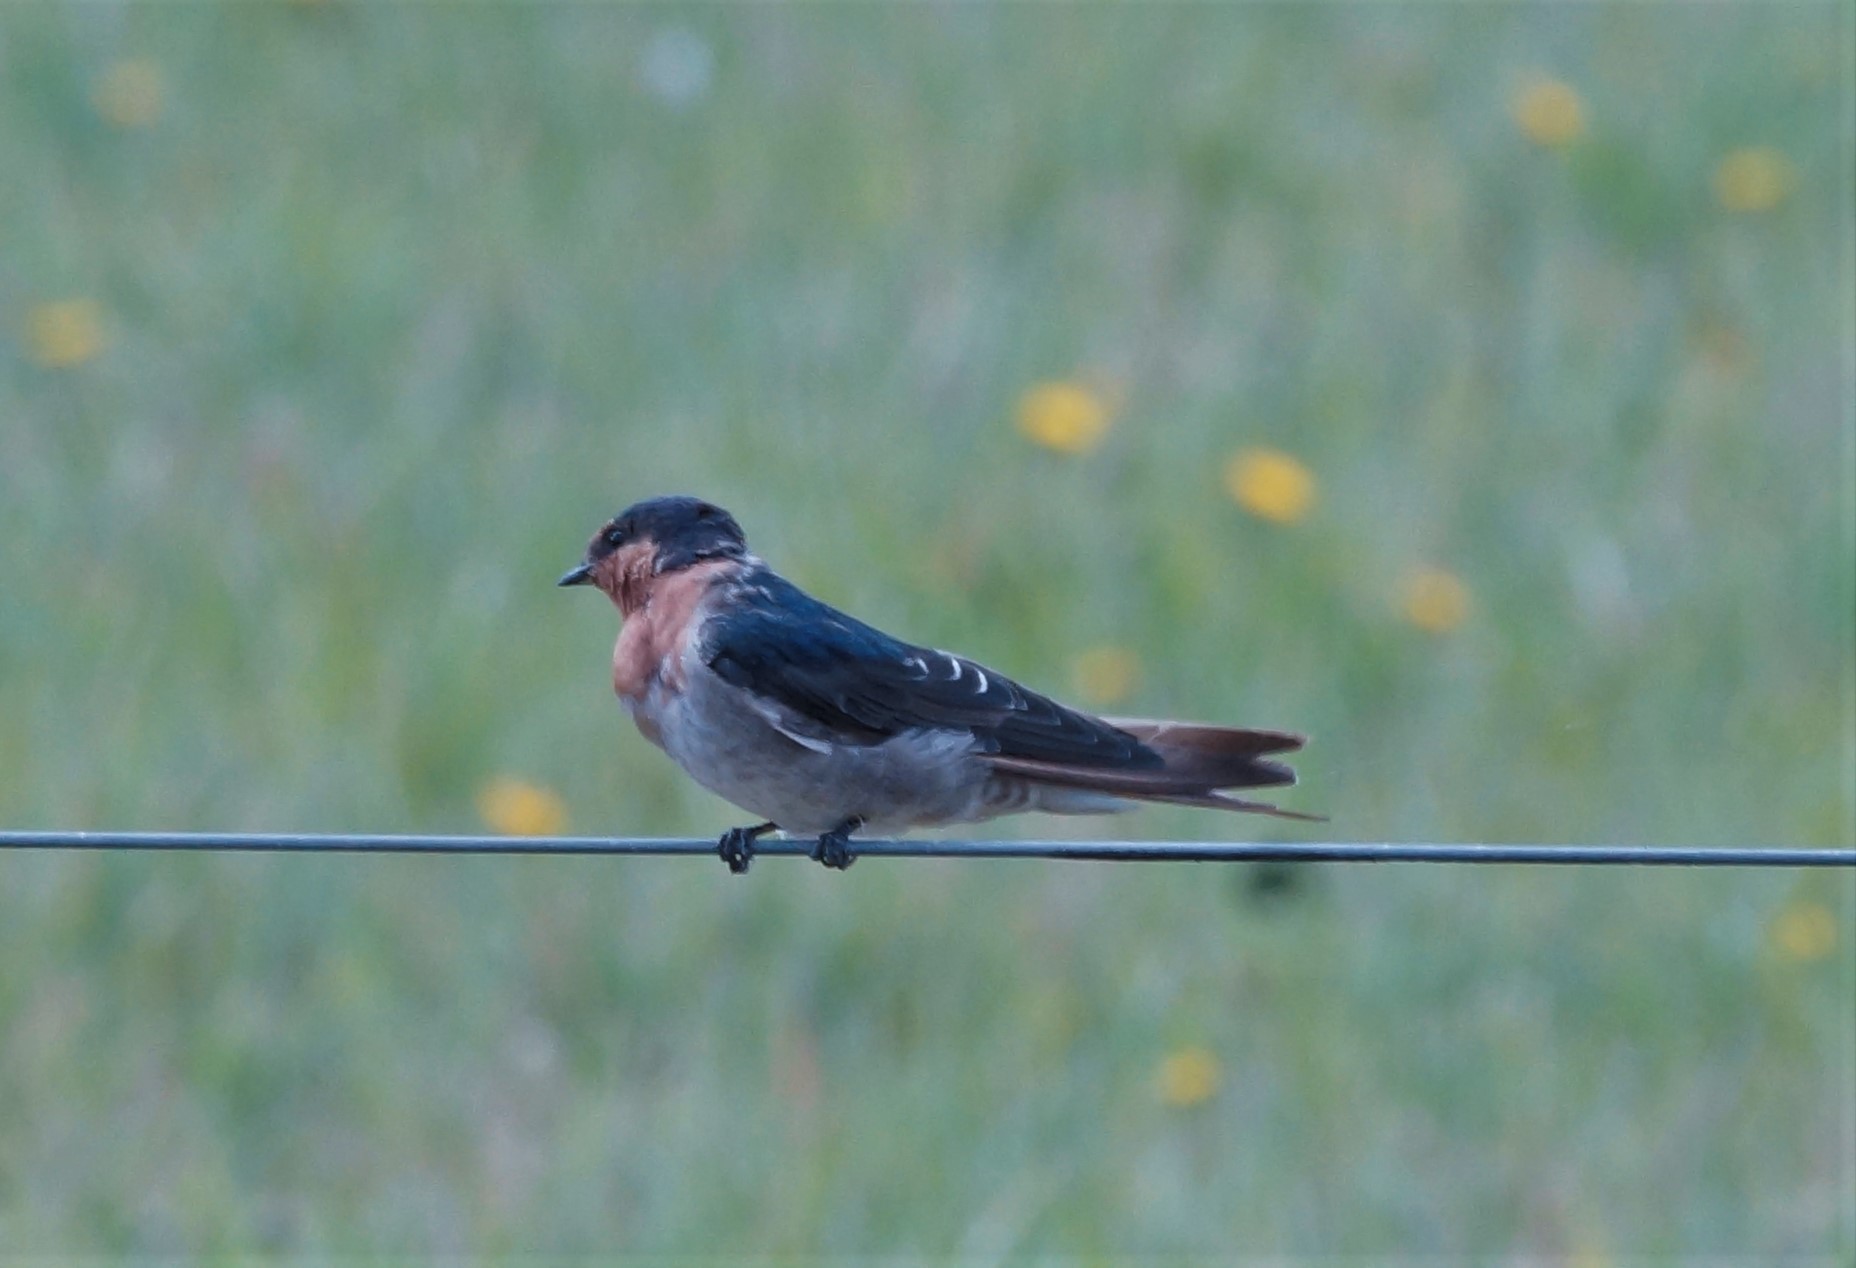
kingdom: Animalia
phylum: Chordata
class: Aves
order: Passeriformes
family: Hirundinidae
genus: Hirundo
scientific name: Hirundo neoxena
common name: Welcome swallow
